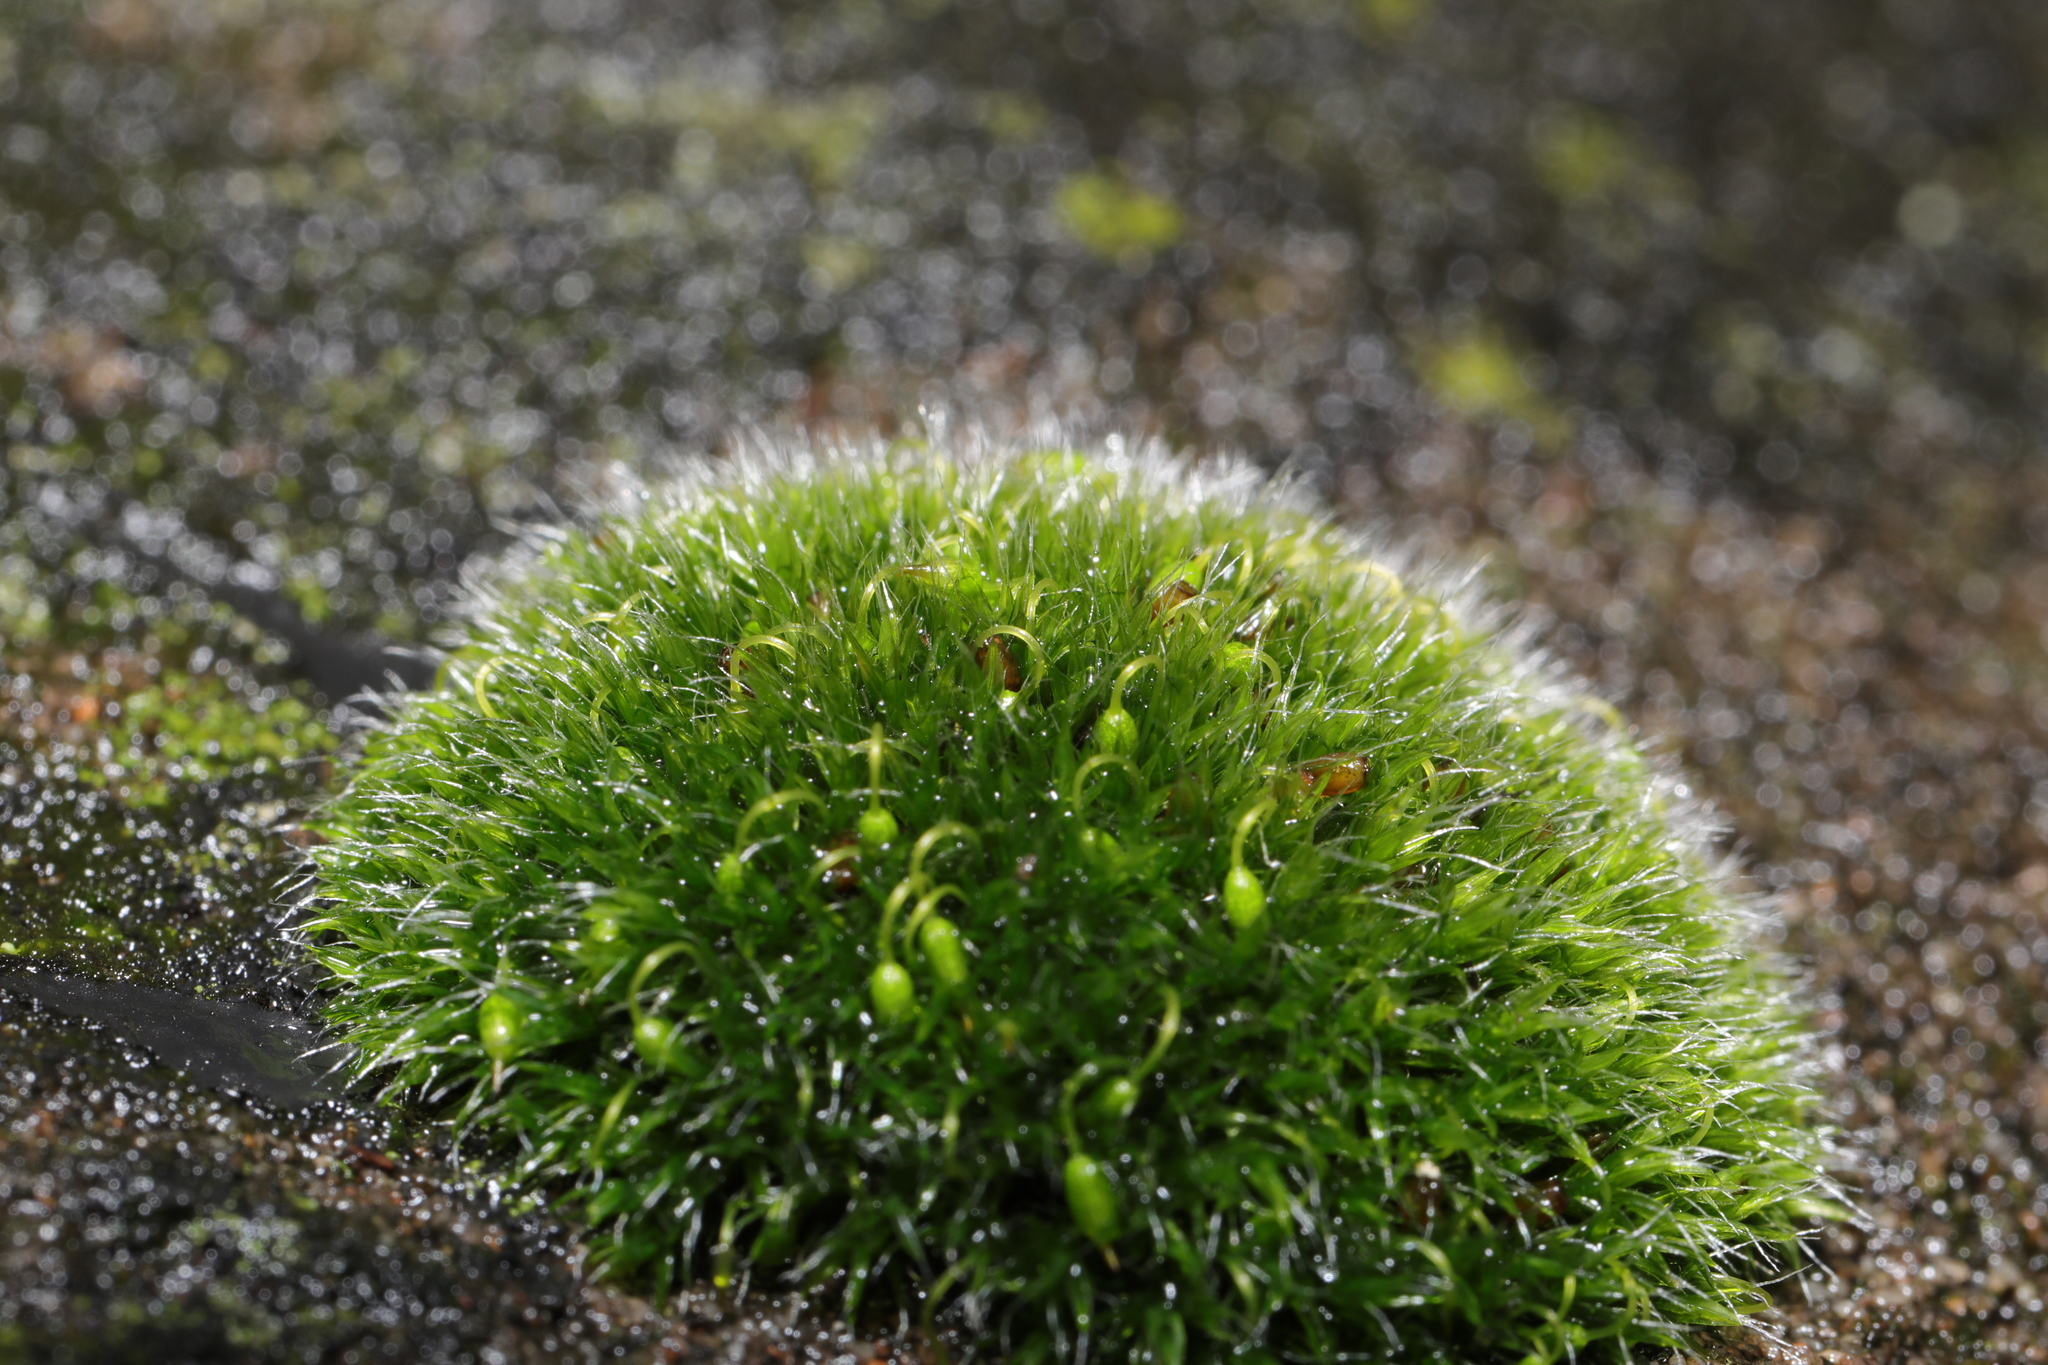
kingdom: Plantae
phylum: Bryophyta
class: Bryopsida
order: Grimmiales
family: Grimmiaceae
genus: Grimmia
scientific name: Grimmia pulvinata
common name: Grey-cushioned grimmia
